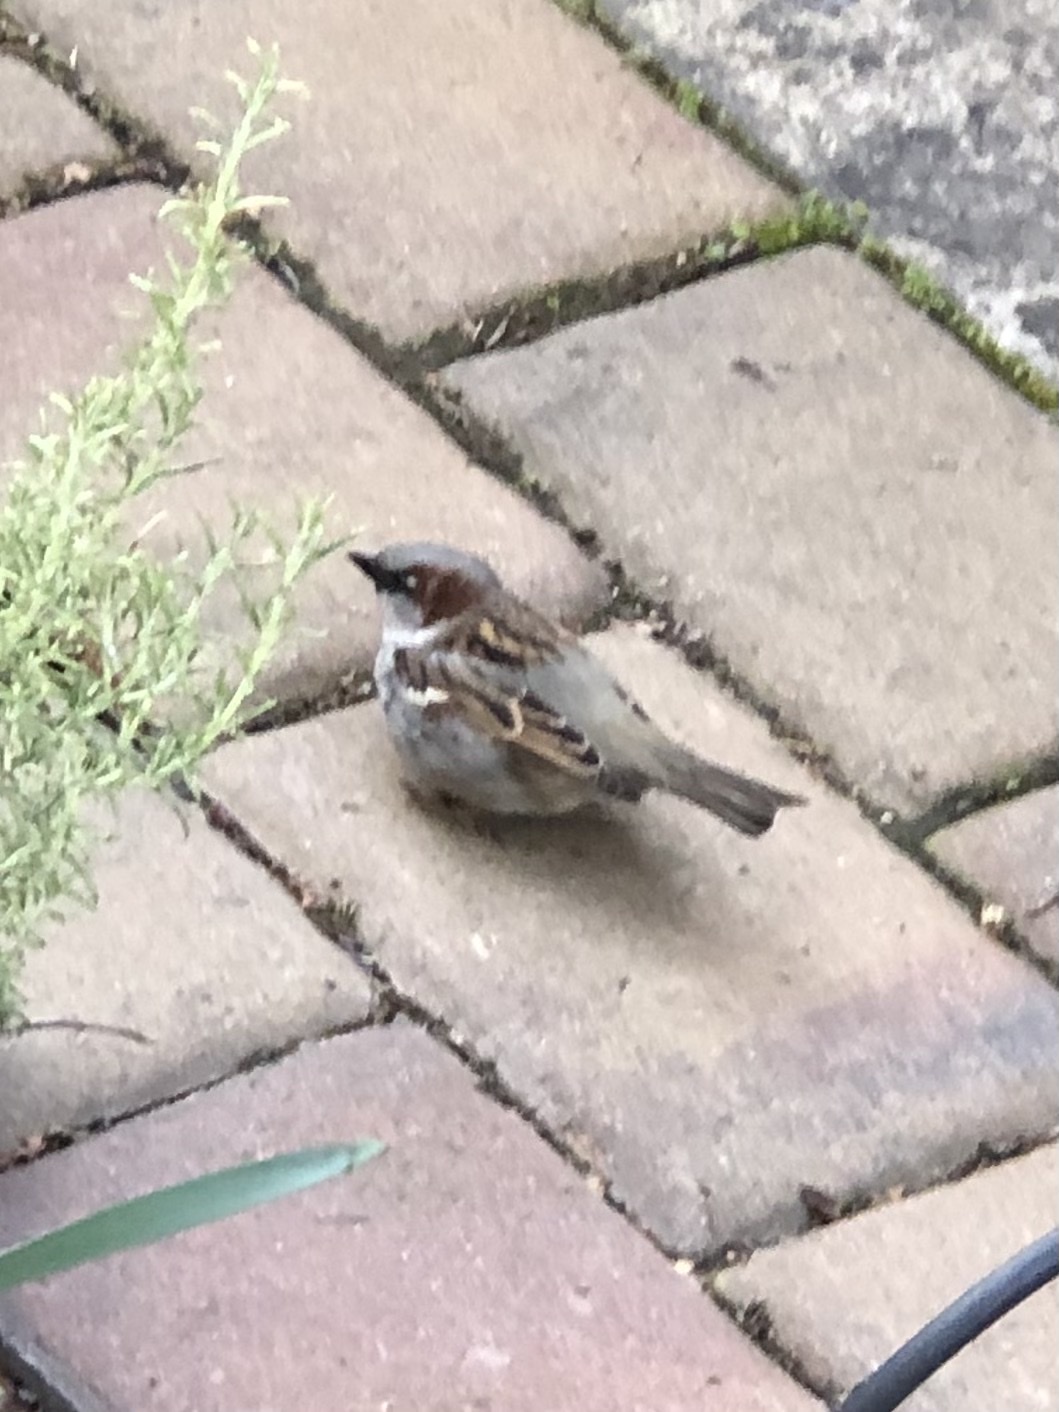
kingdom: Animalia
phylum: Chordata
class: Aves
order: Passeriformes
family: Passeridae
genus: Passer
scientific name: Passer domesticus
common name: House sparrow
